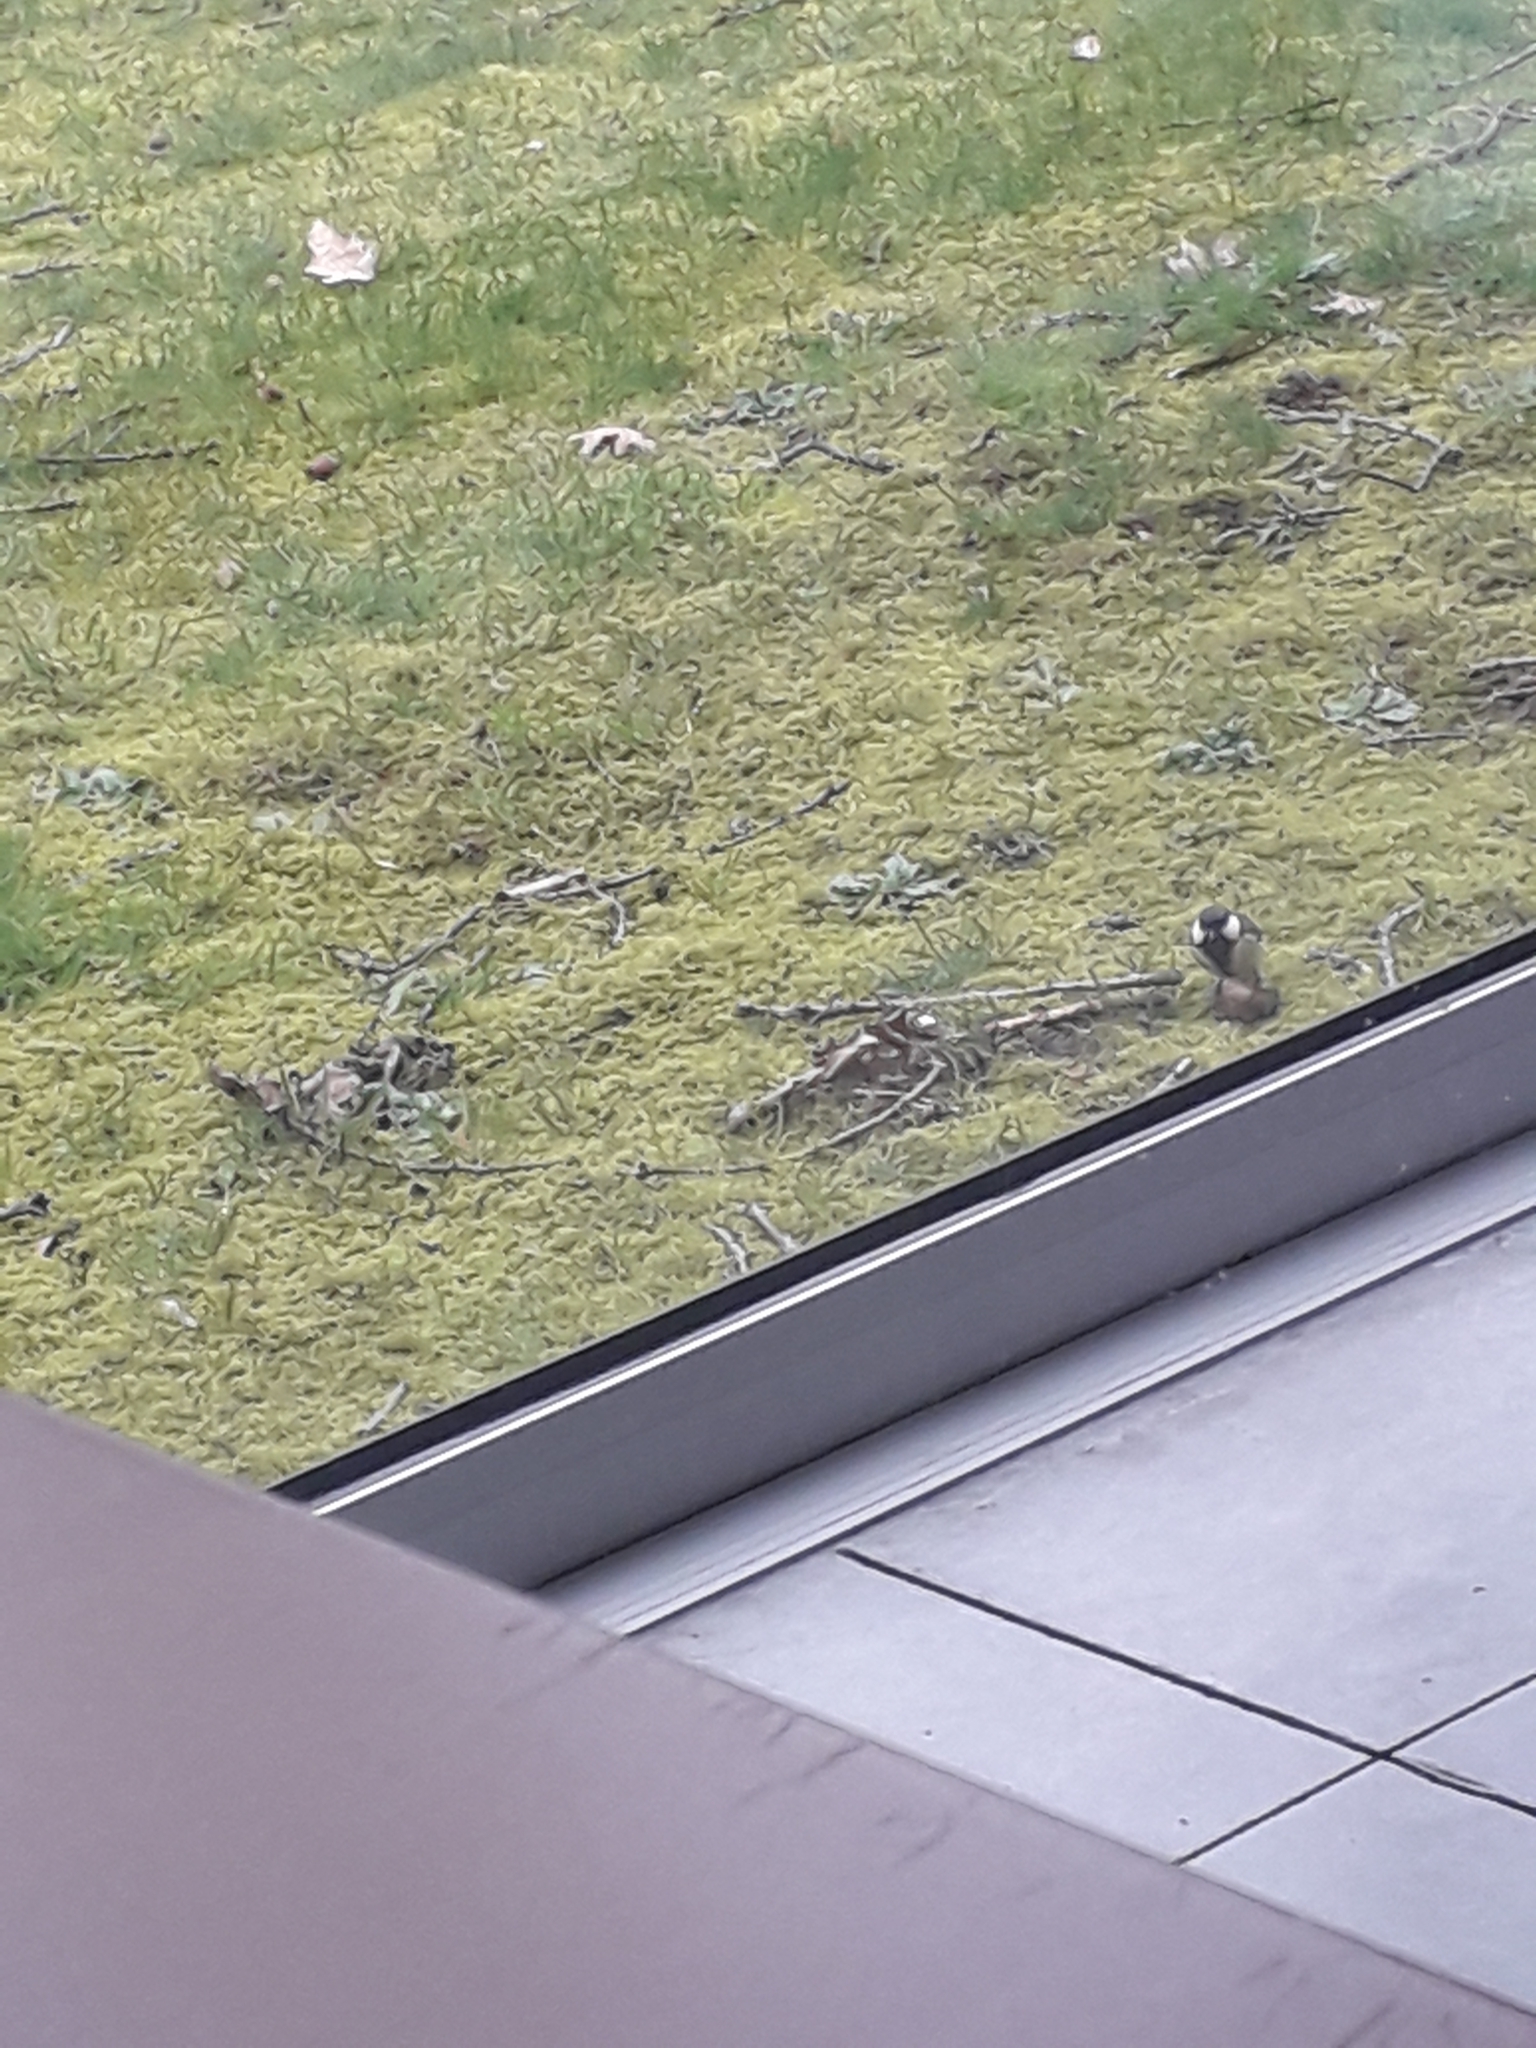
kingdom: Animalia
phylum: Chordata
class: Aves
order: Passeriformes
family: Paridae
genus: Parus
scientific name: Parus major
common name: Great tit
